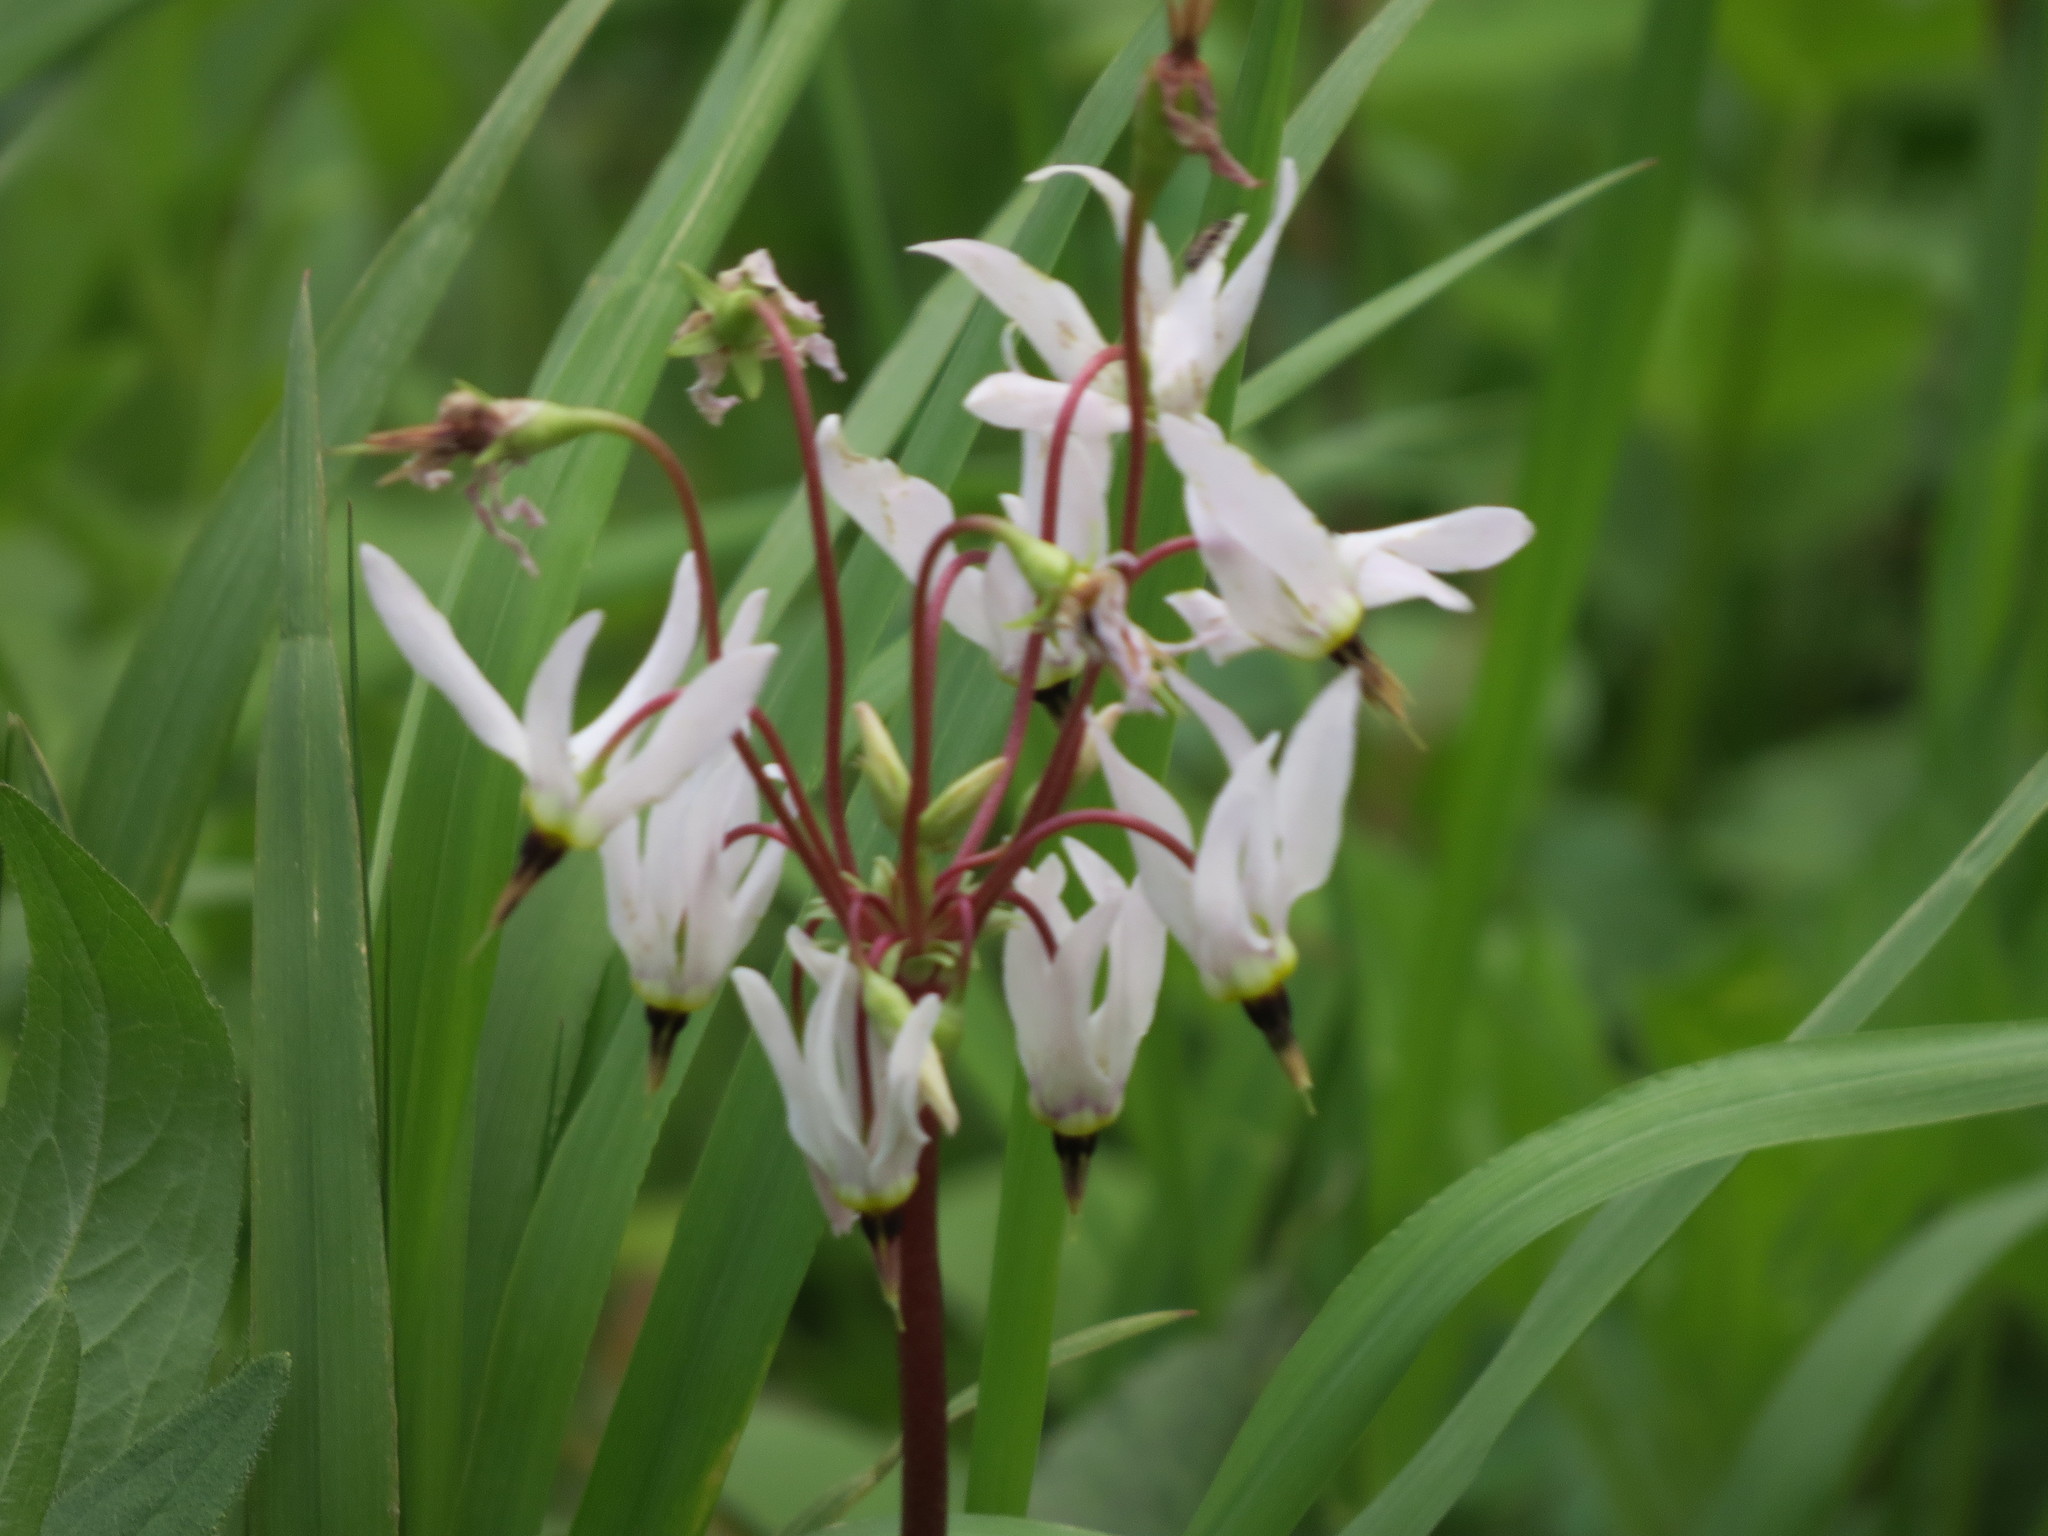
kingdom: Plantae
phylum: Tracheophyta
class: Magnoliopsida
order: Ericales
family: Primulaceae
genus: Dodecatheon
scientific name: Dodecatheon meadia
